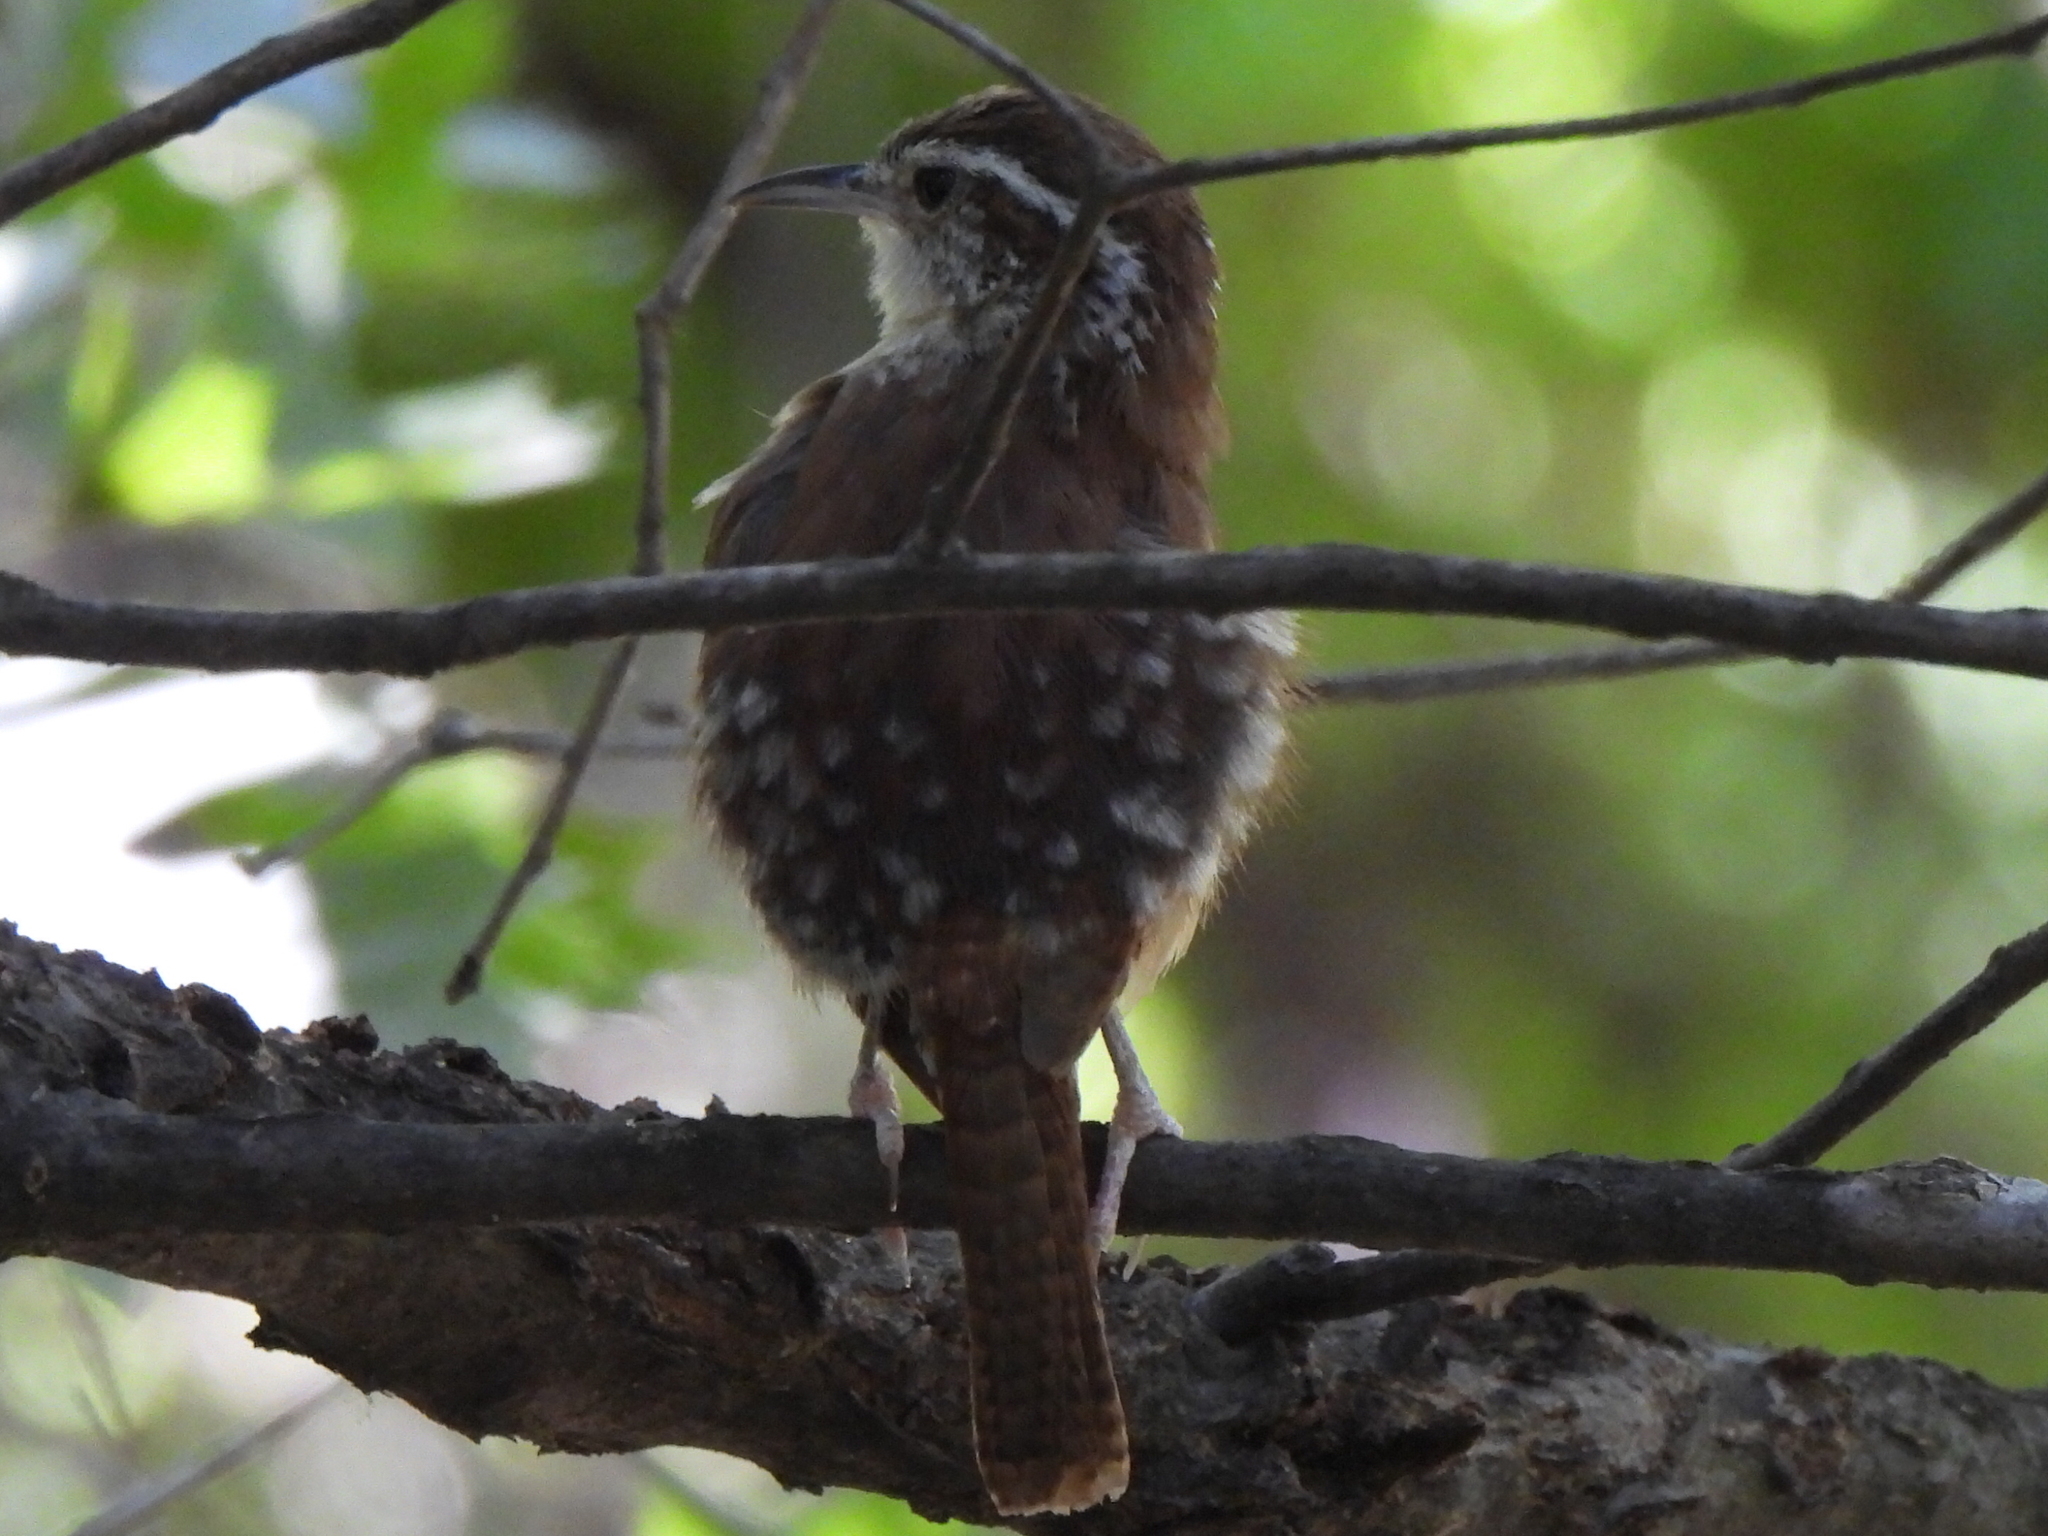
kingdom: Animalia
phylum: Chordata
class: Aves
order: Passeriformes
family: Troglodytidae
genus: Thryothorus
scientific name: Thryothorus ludovicianus
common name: Carolina wren
